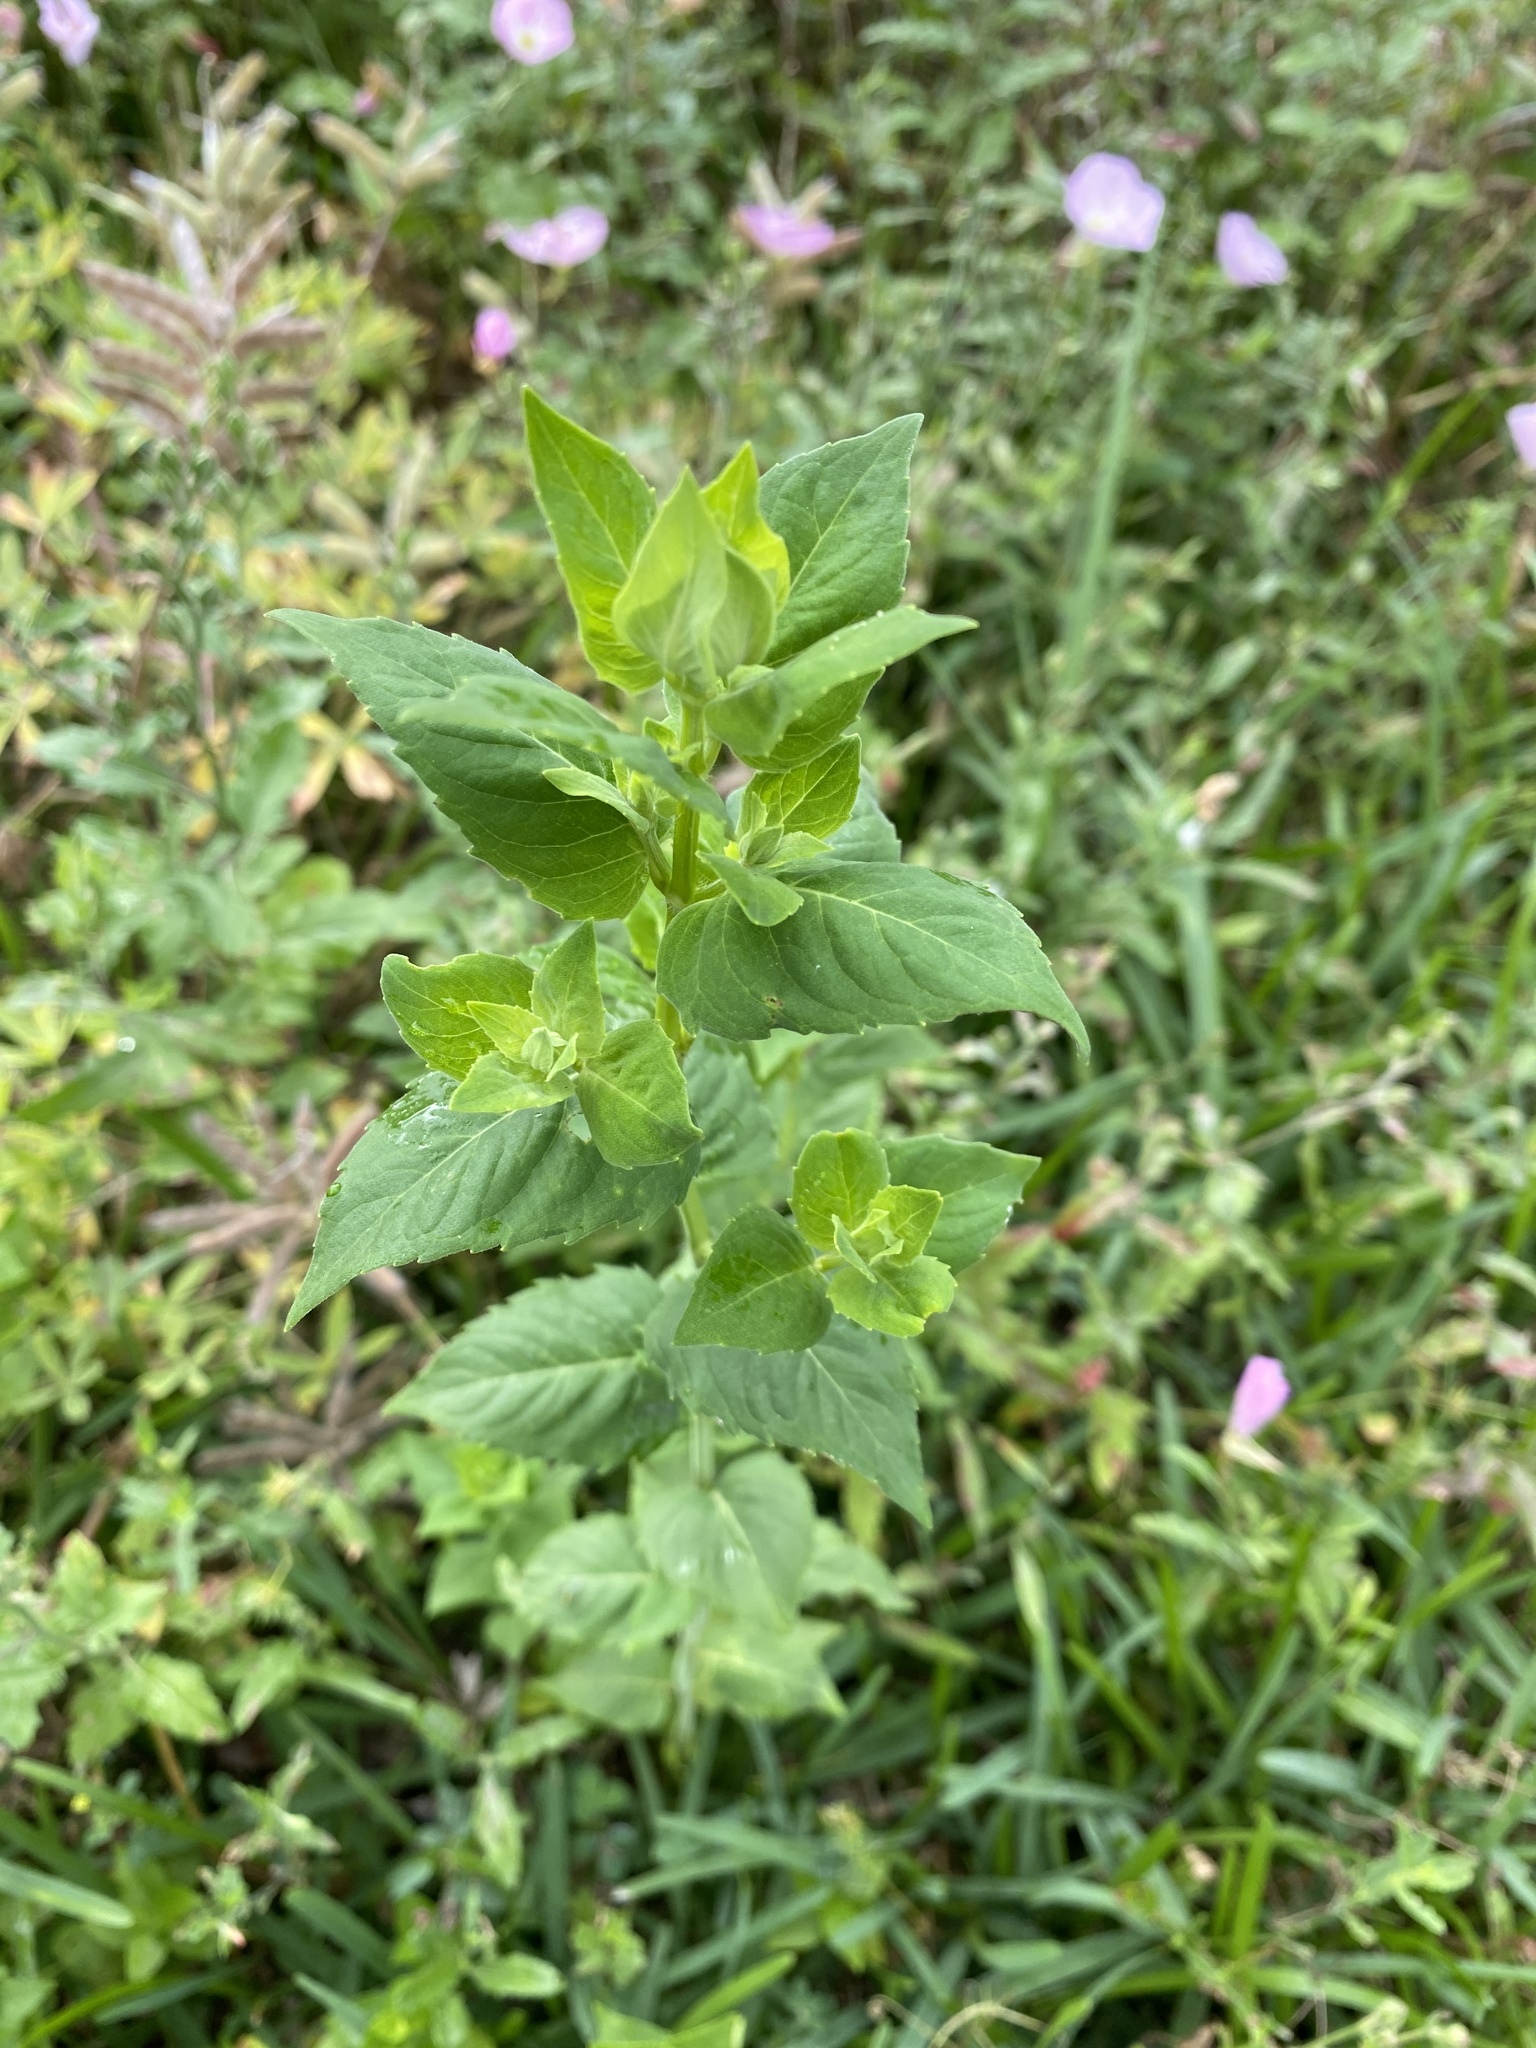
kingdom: Plantae
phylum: Tracheophyta
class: Magnoliopsida
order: Lamiales
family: Lamiaceae
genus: Monarda
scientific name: Monarda lindheimeri
